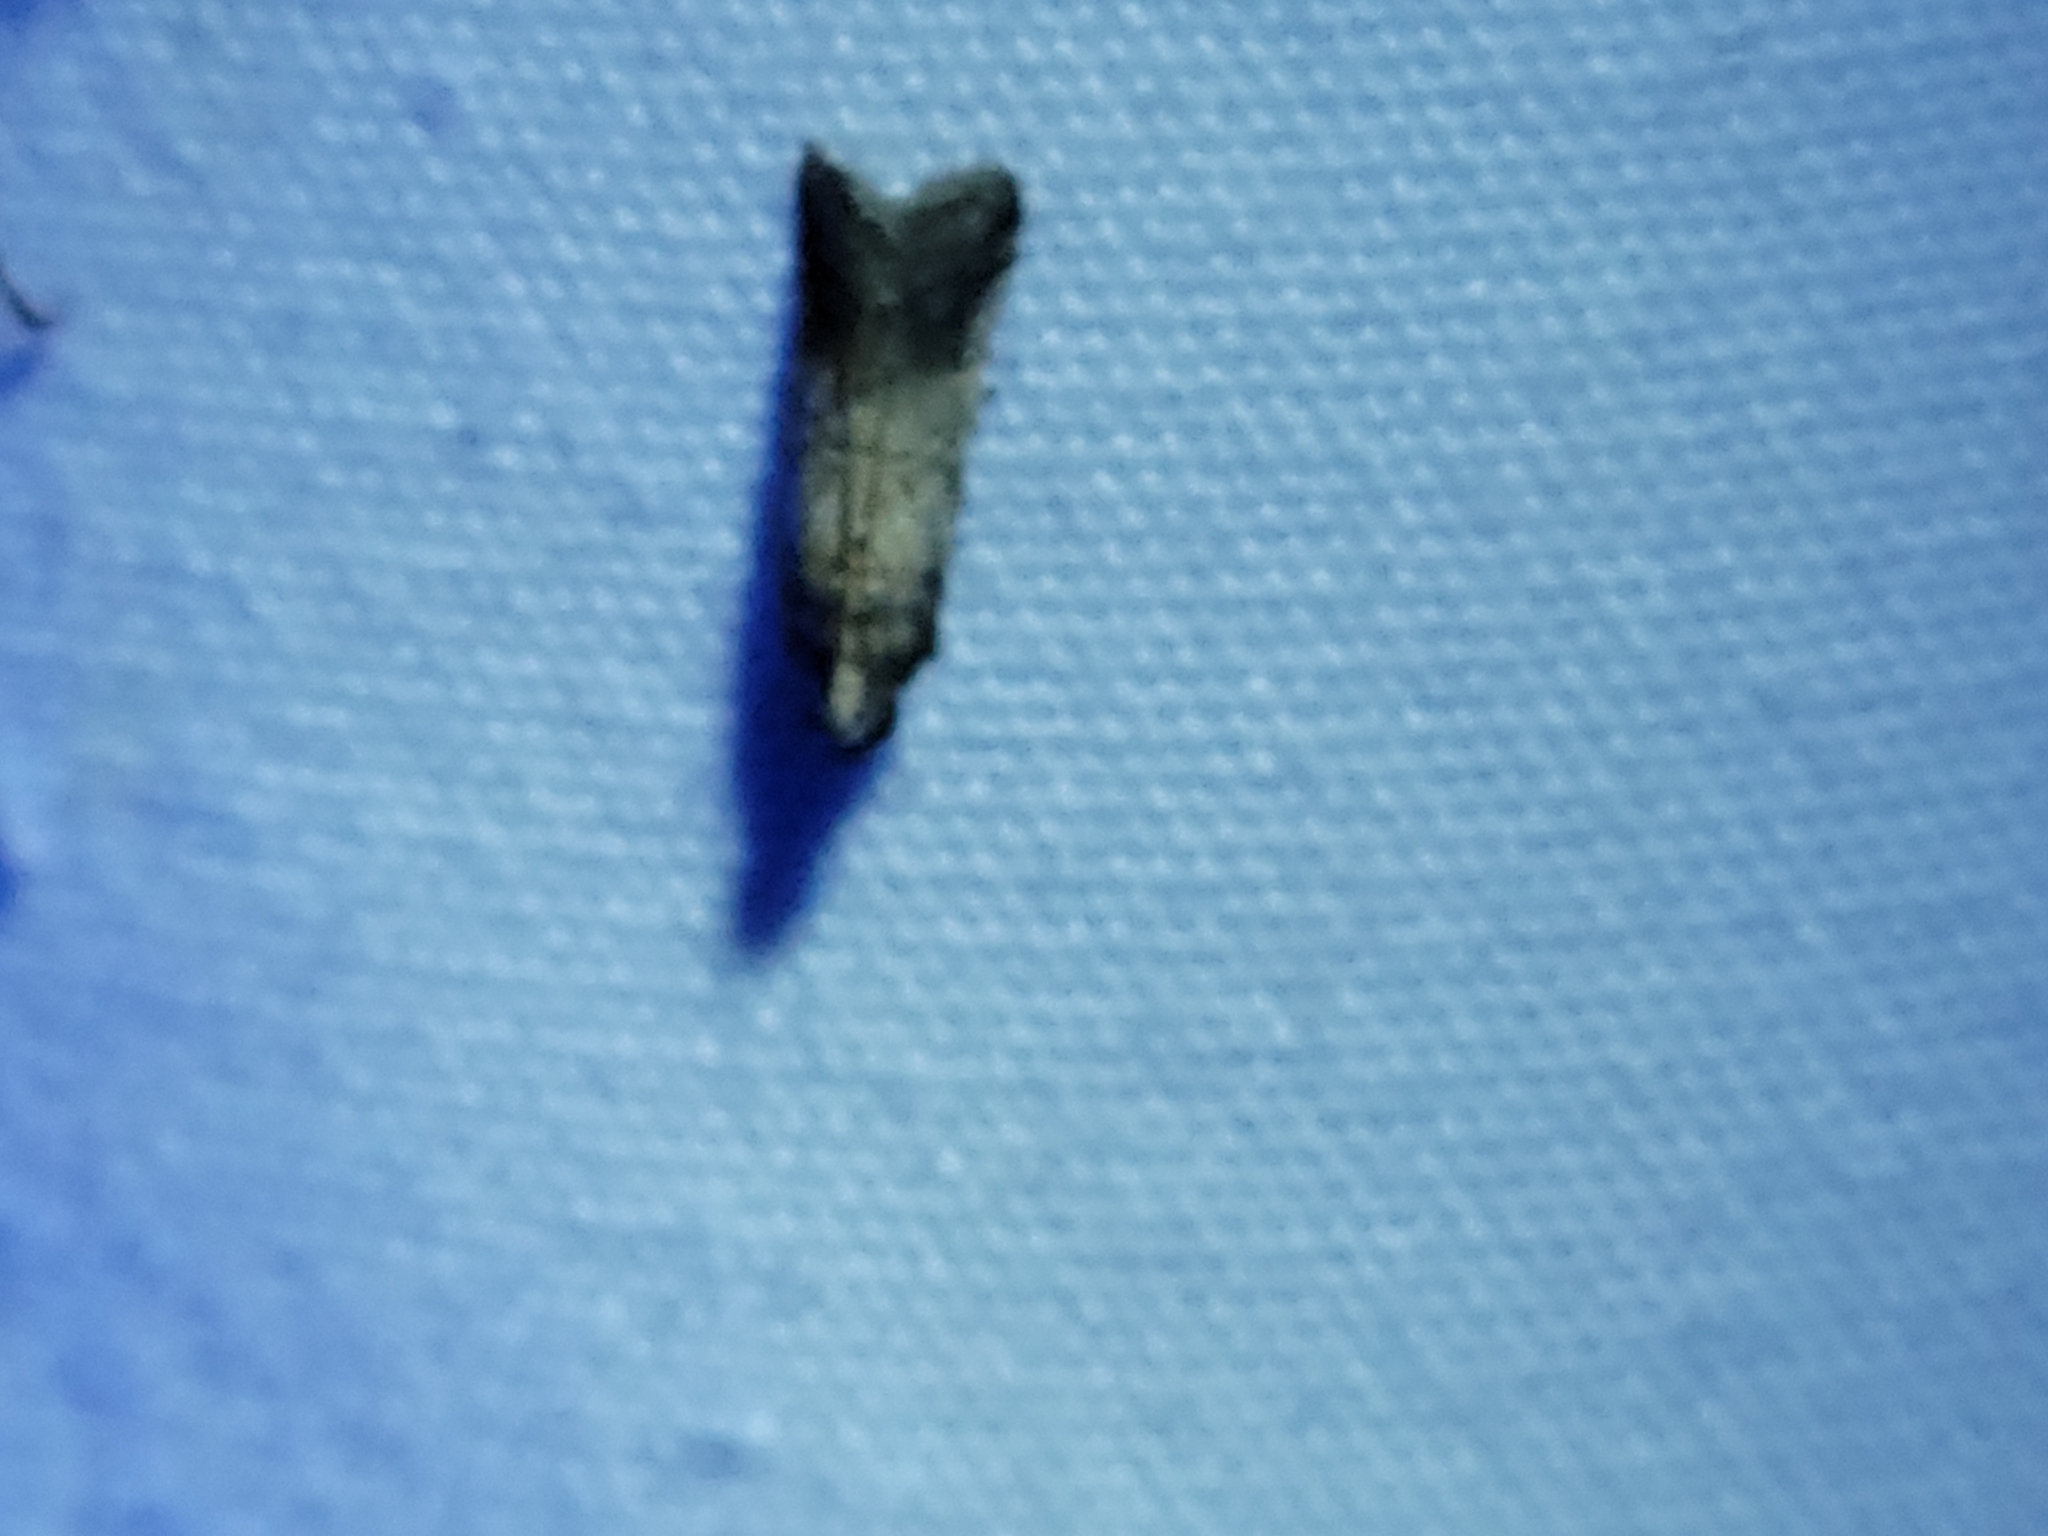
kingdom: Animalia
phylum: Arthropoda
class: Insecta
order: Lepidoptera
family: Pyralidae
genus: Chararica
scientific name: Chararica hystriculella
